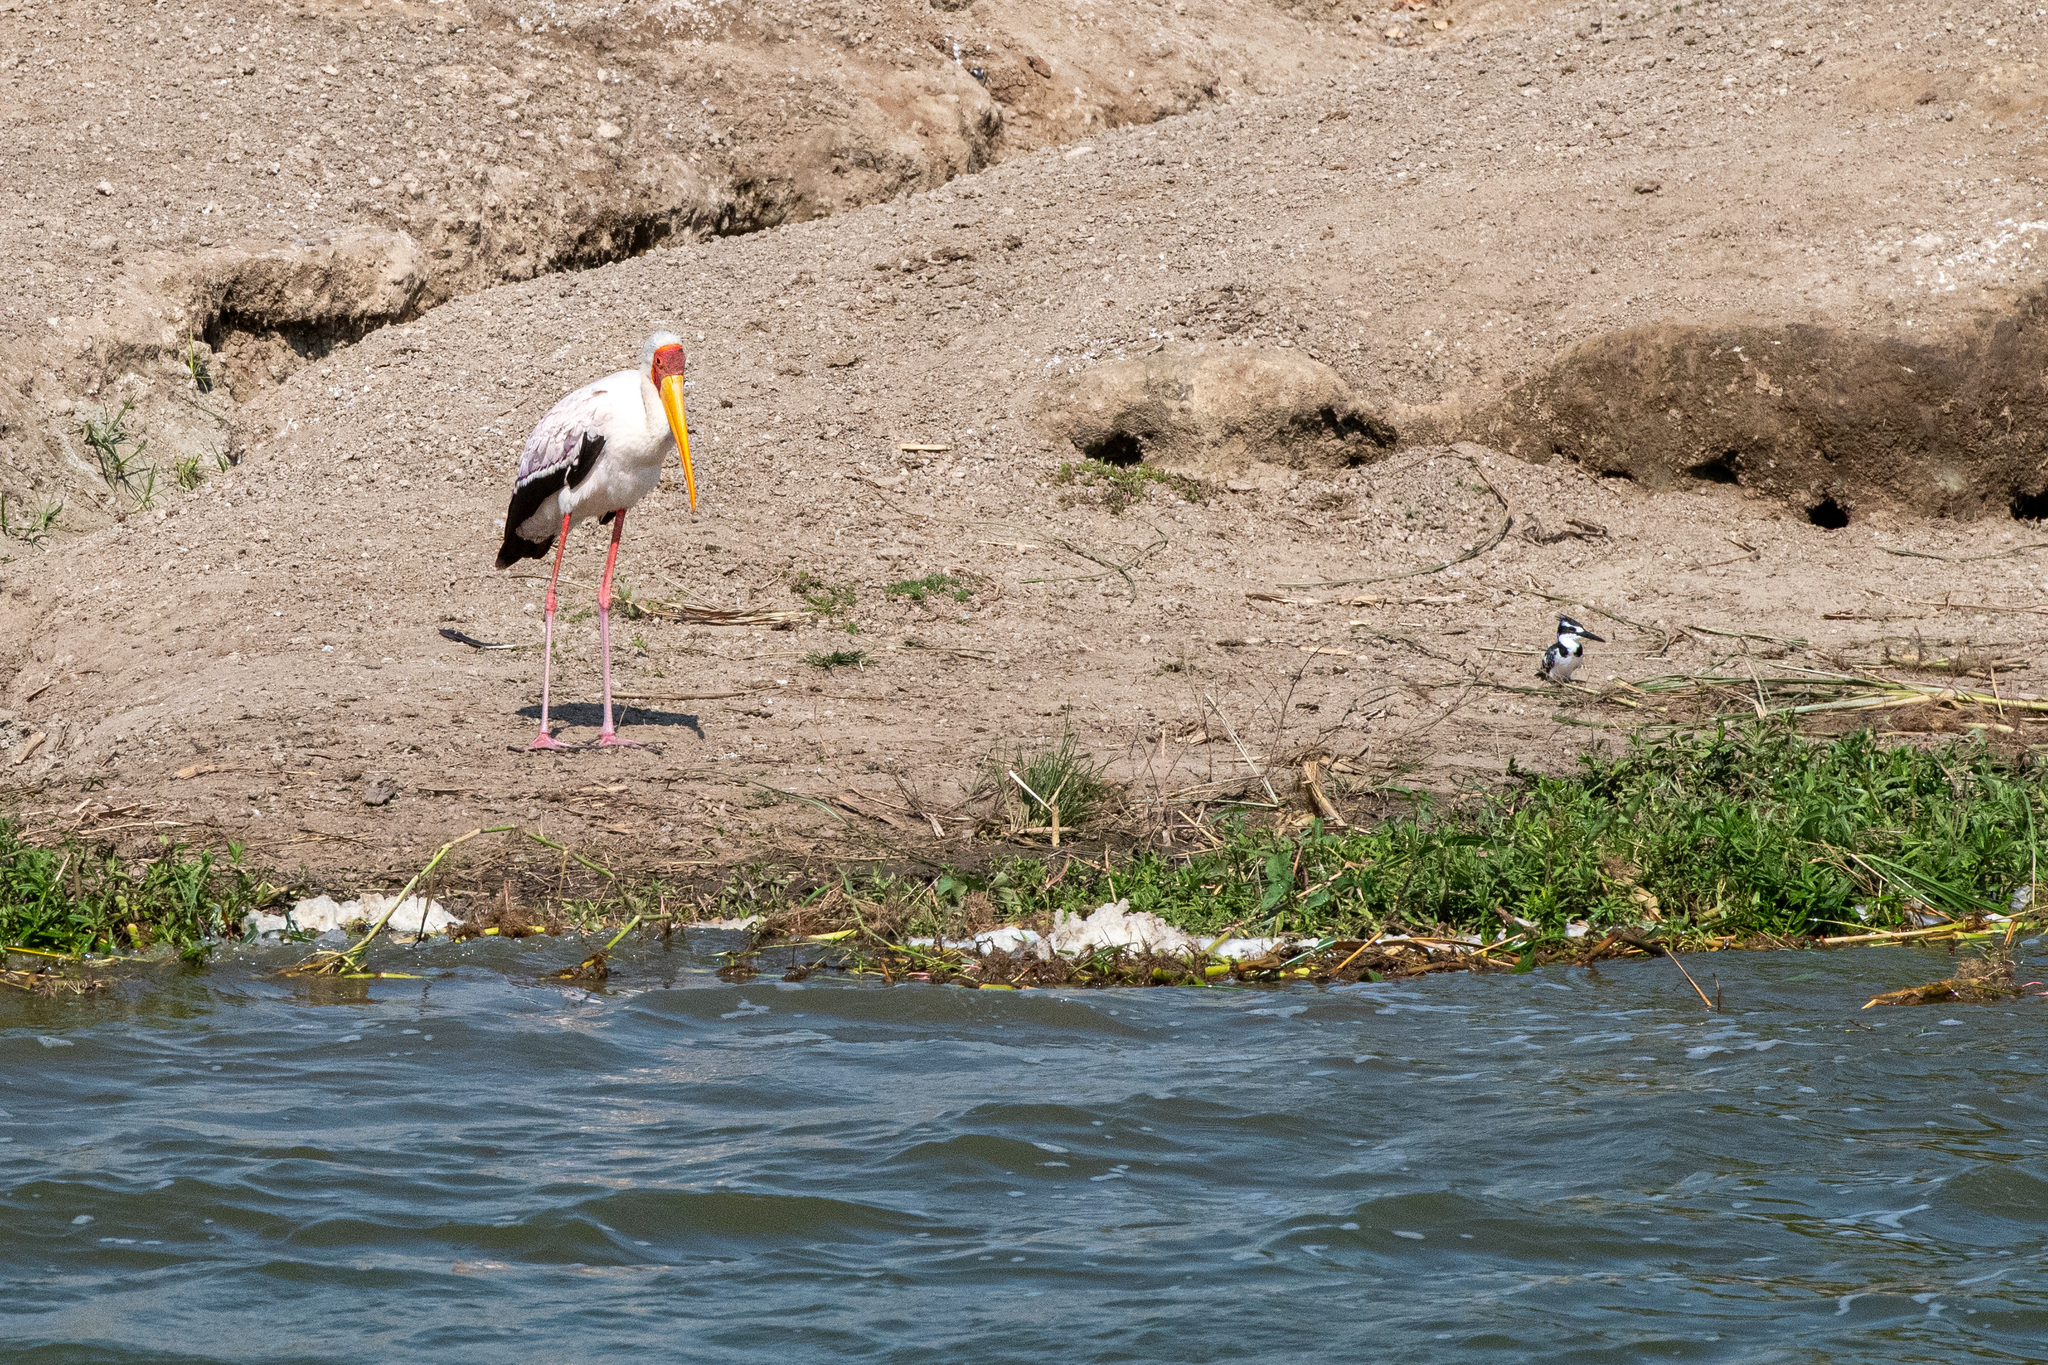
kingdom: Animalia
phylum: Chordata
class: Aves
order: Ciconiiformes
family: Ciconiidae
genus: Mycteria
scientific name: Mycteria ibis
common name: Yellow-billed stork
